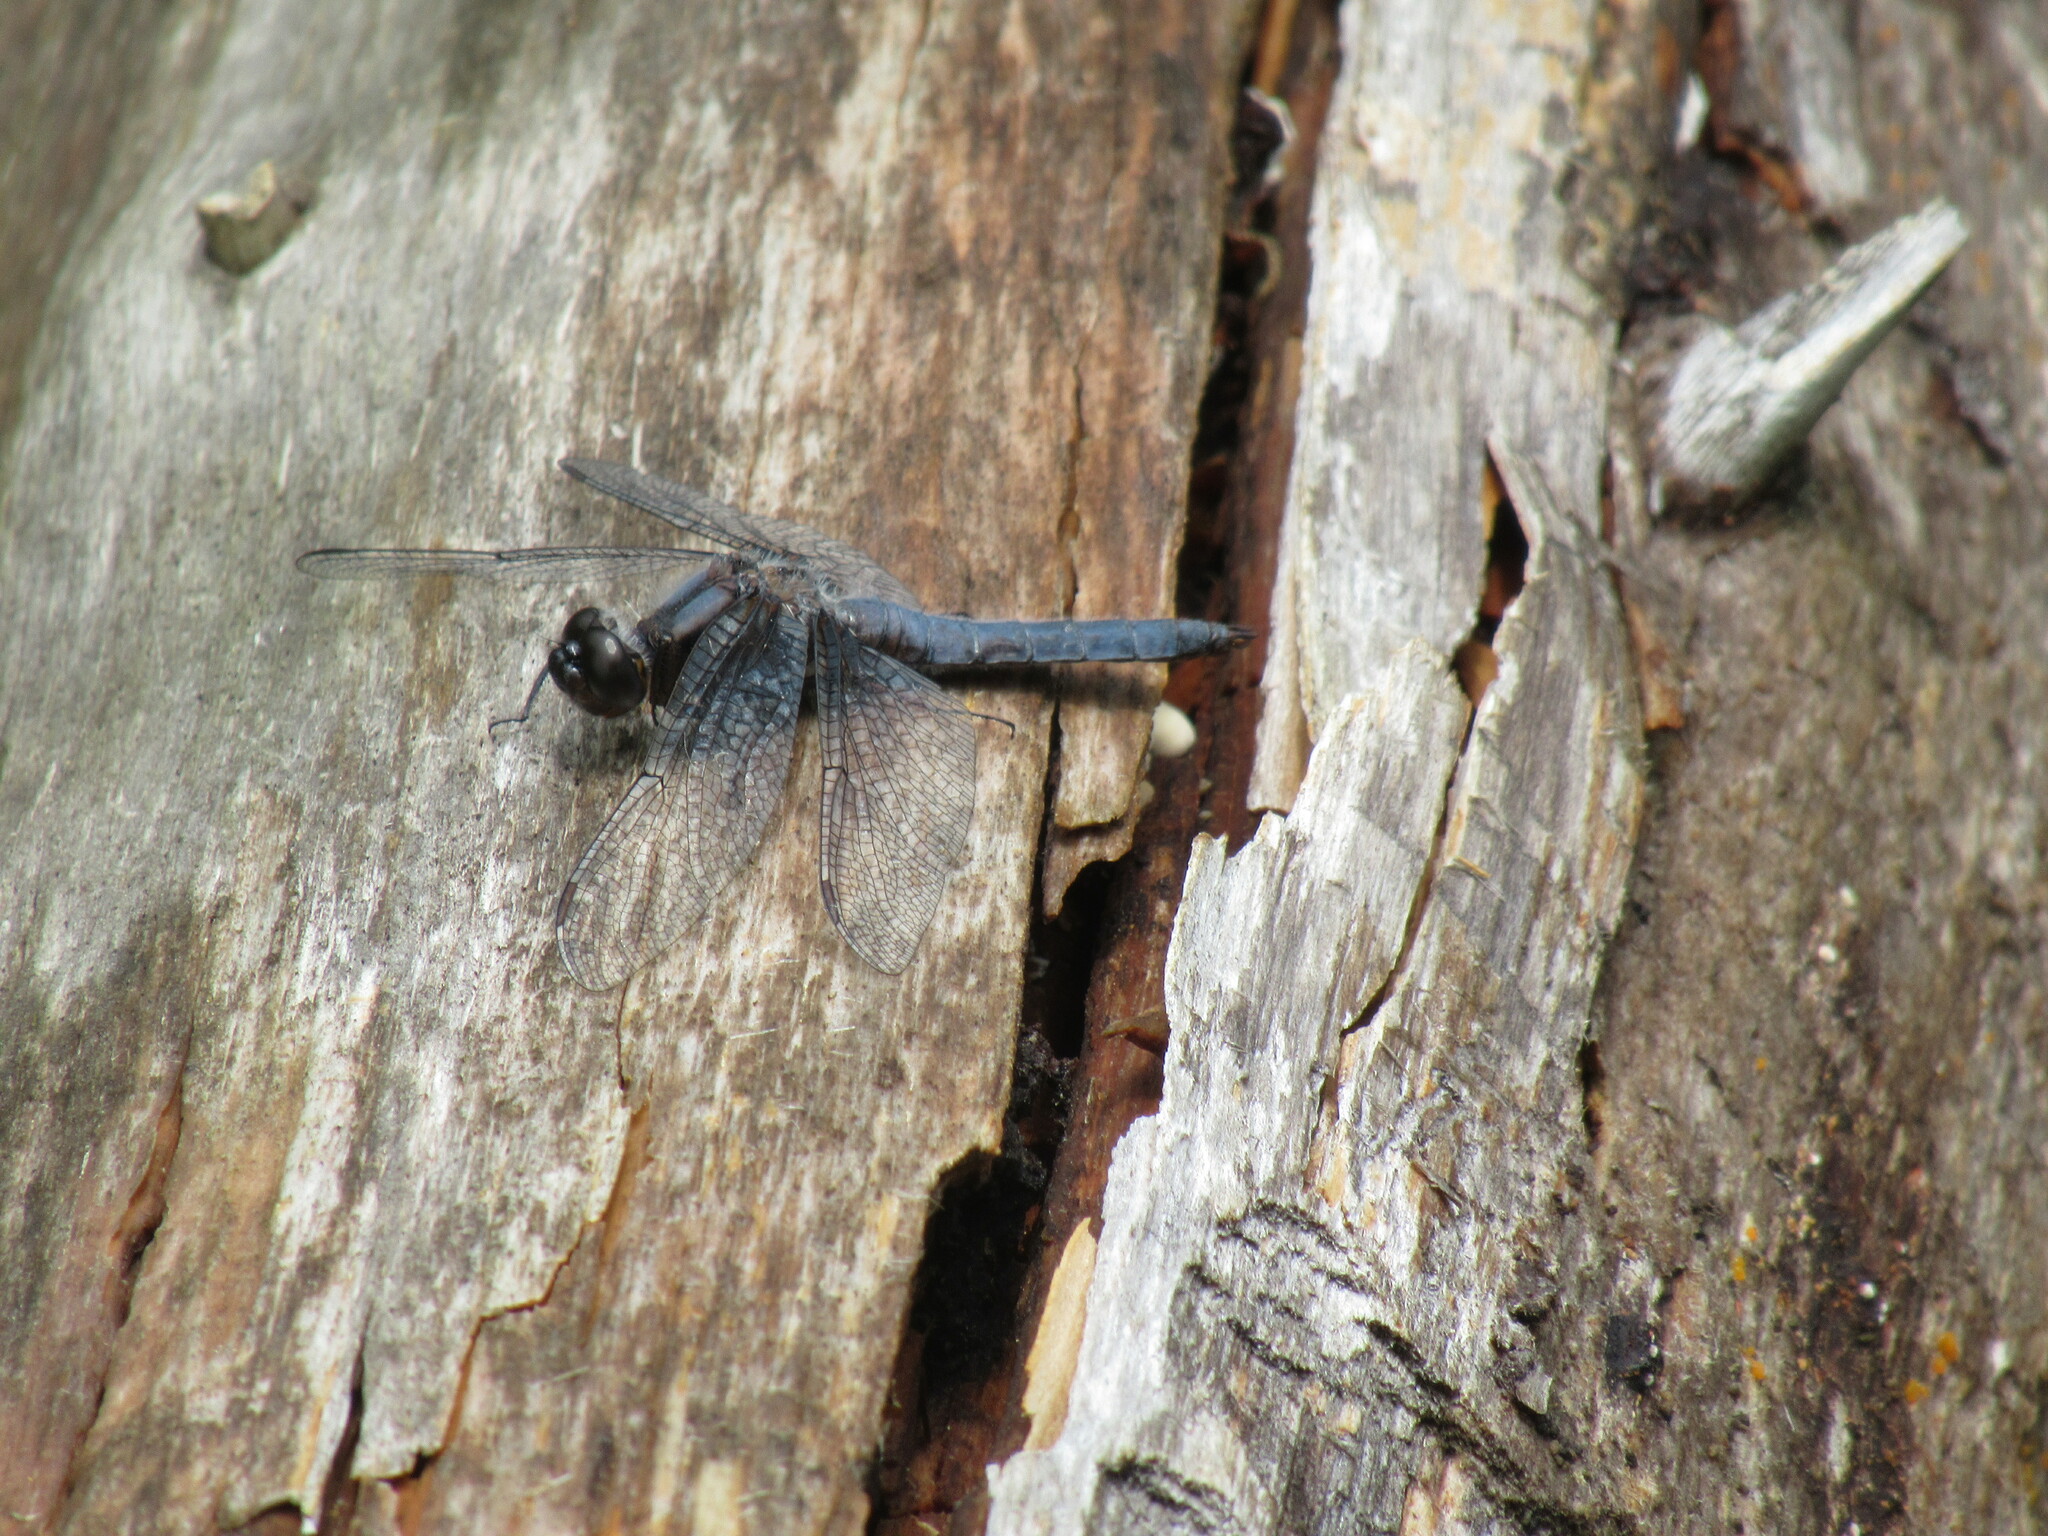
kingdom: Animalia
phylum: Arthropoda
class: Insecta
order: Odonata
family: Libellulidae
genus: Ladona
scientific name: Ladona deplanata
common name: Blue corporal
